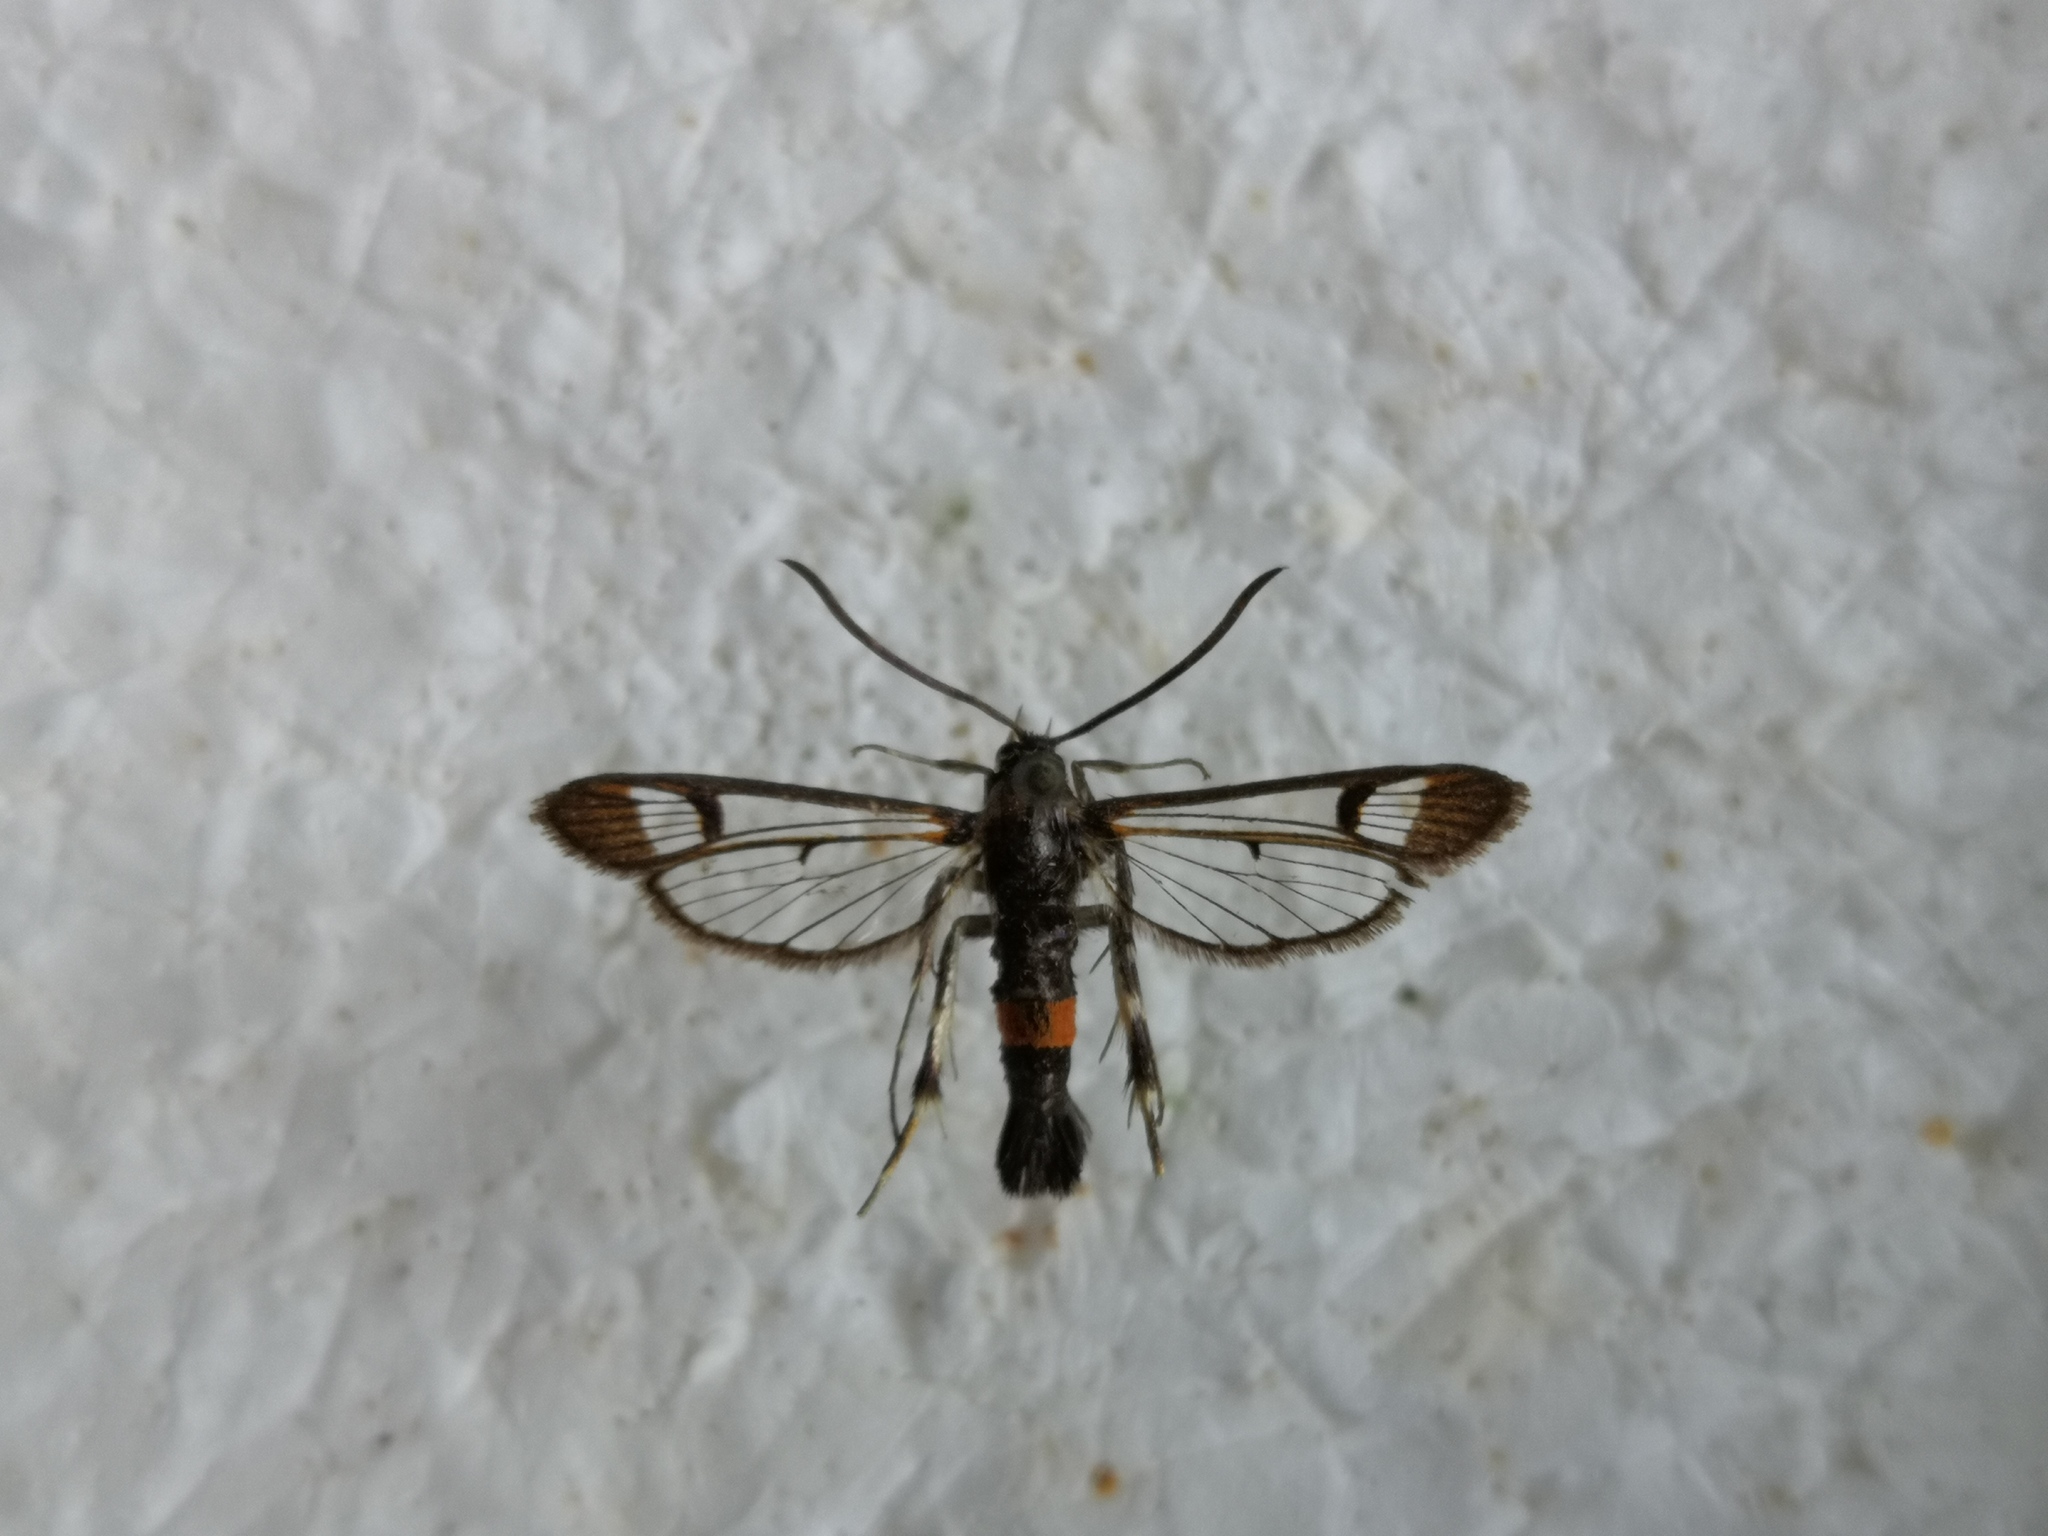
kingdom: Animalia
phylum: Arthropoda
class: Insecta
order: Lepidoptera
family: Sesiidae
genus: Synanthedon
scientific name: Synanthedon formicaeformis
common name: Red-tipped clearwing
